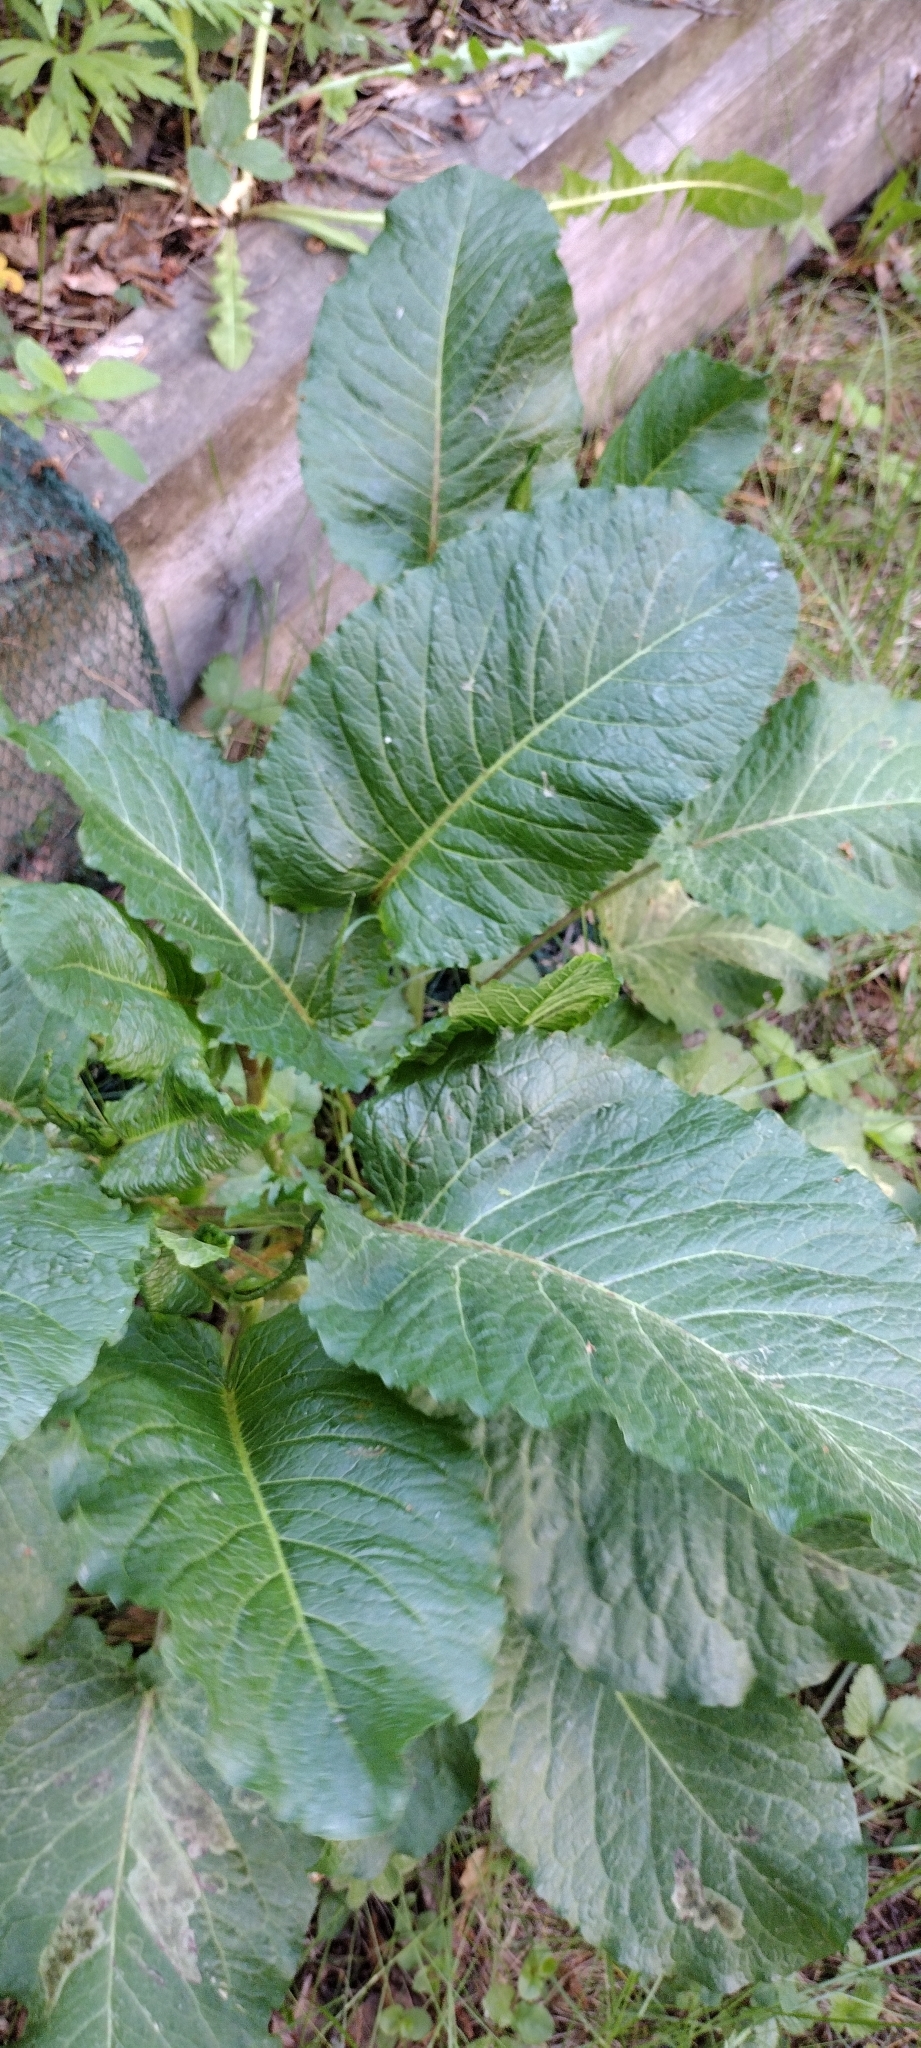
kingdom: Plantae
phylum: Tracheophyta
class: Magnoliopsida
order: Caryophyllales
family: Polygonaceae
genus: Rumex
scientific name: Rumex obtusifolius
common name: Bitter dock
